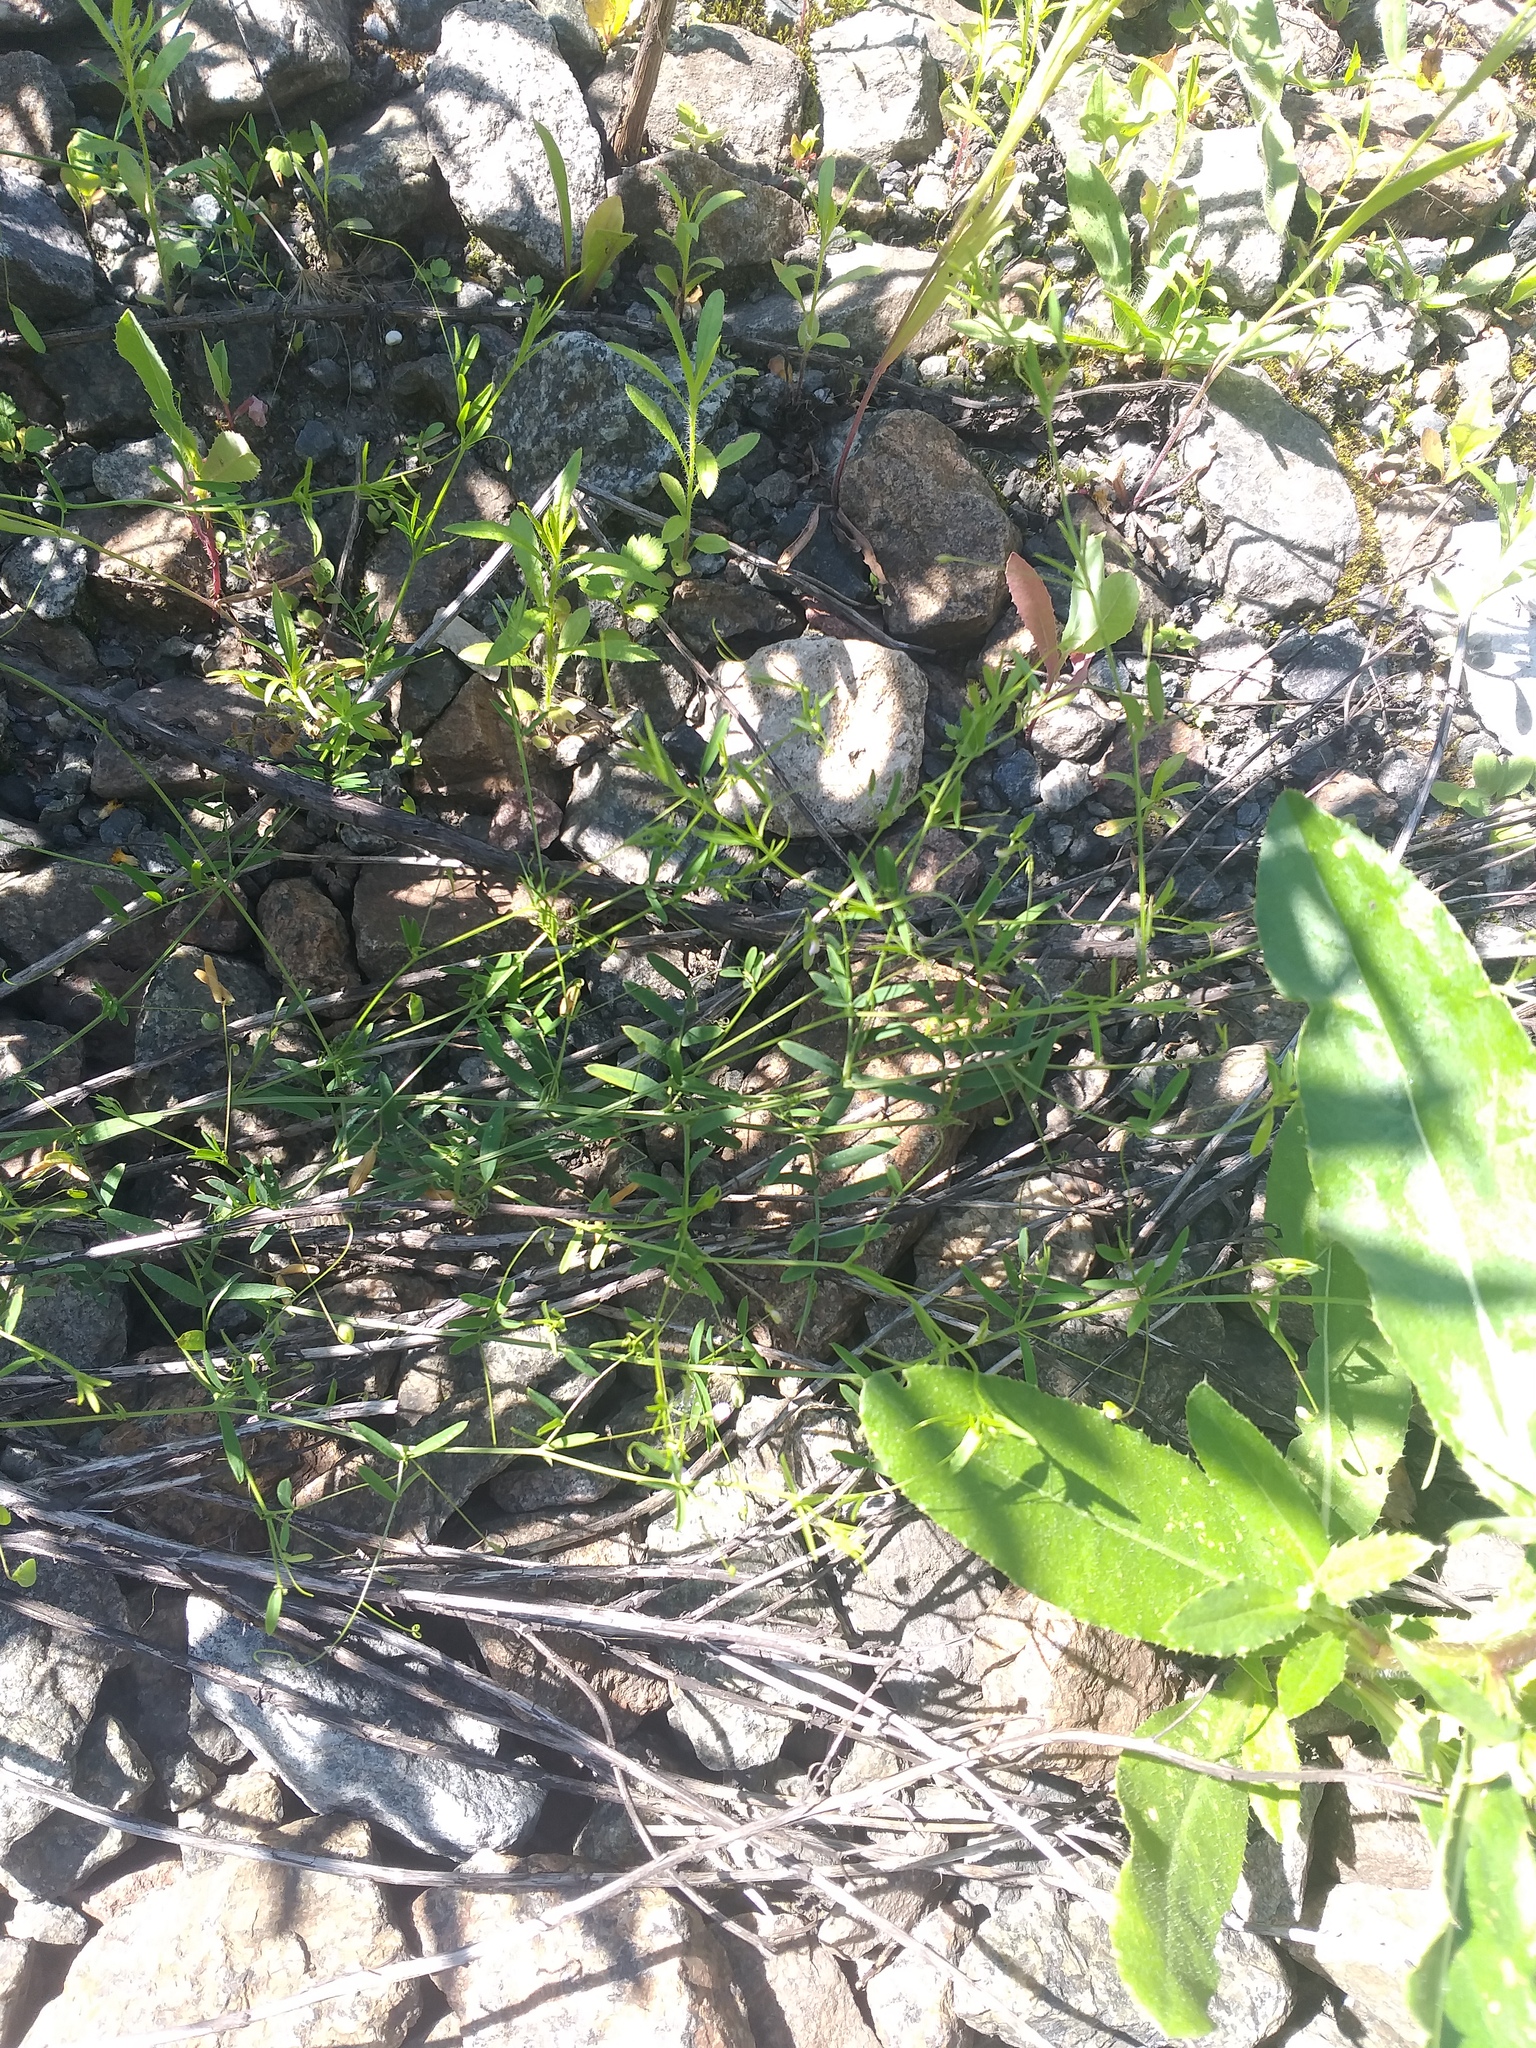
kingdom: Plantae
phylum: Tracheophyta
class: Magnoliopsida
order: Fabales
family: Fabaceae
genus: Vicia
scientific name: Vicia tetrasperma
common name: Smooth tare
